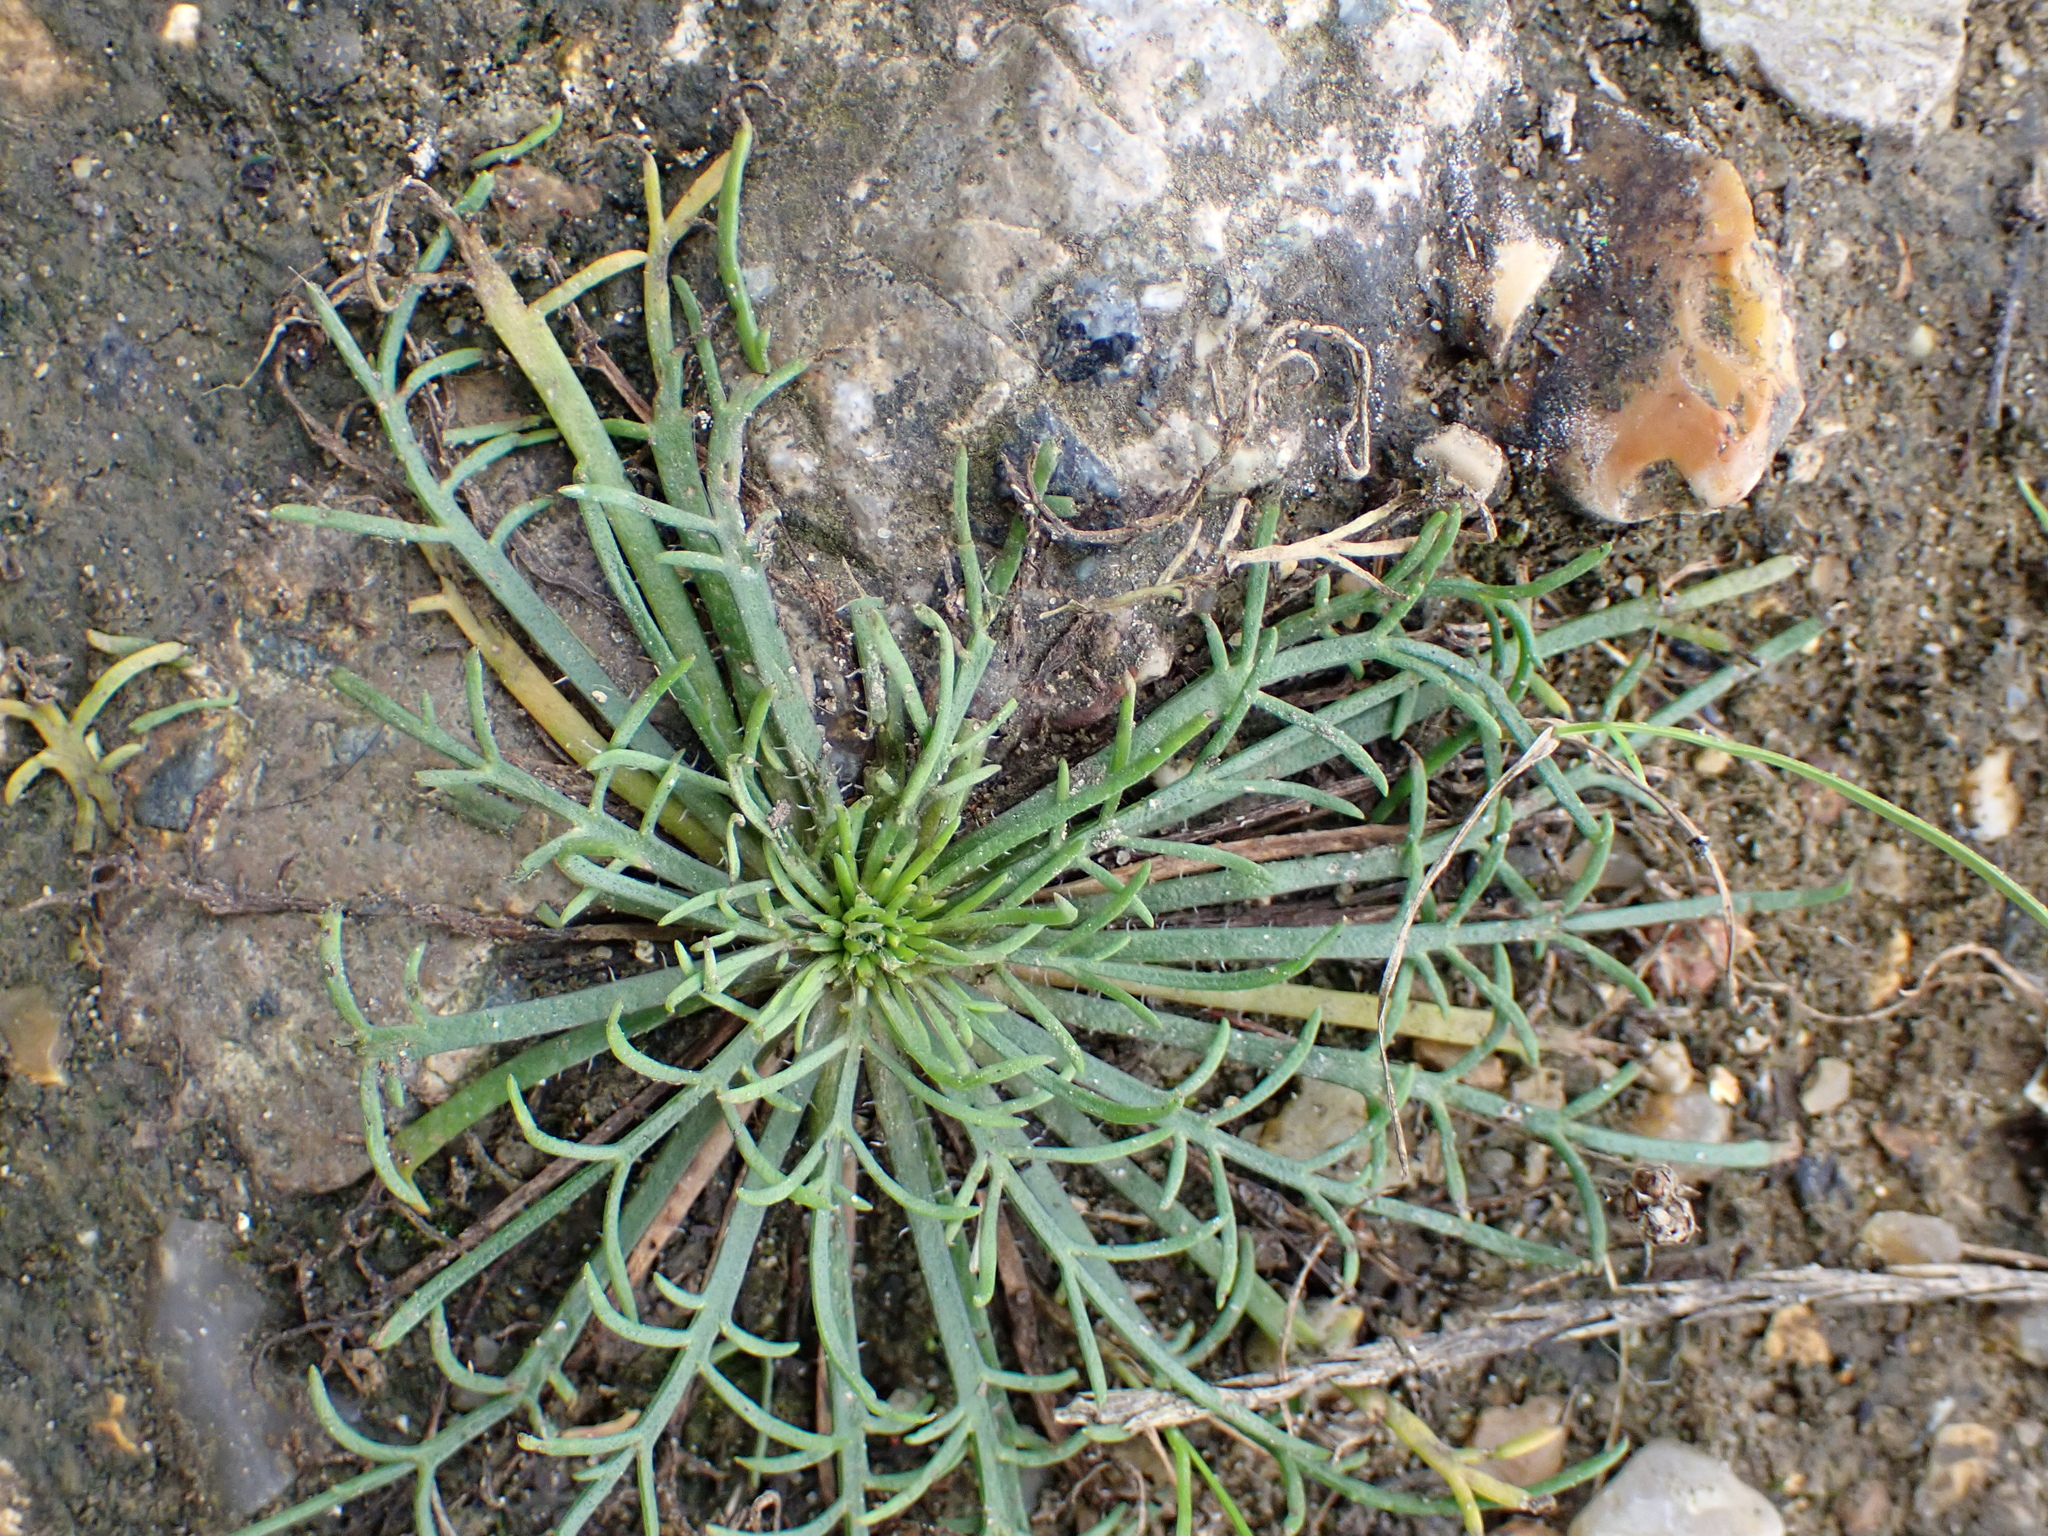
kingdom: Plantae
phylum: Tracheophyta
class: Magnoliopsida
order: Lamiales
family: Plantaginaceae
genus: Plantago
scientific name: Plantago coronopus
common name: Buck's-horn plantain
